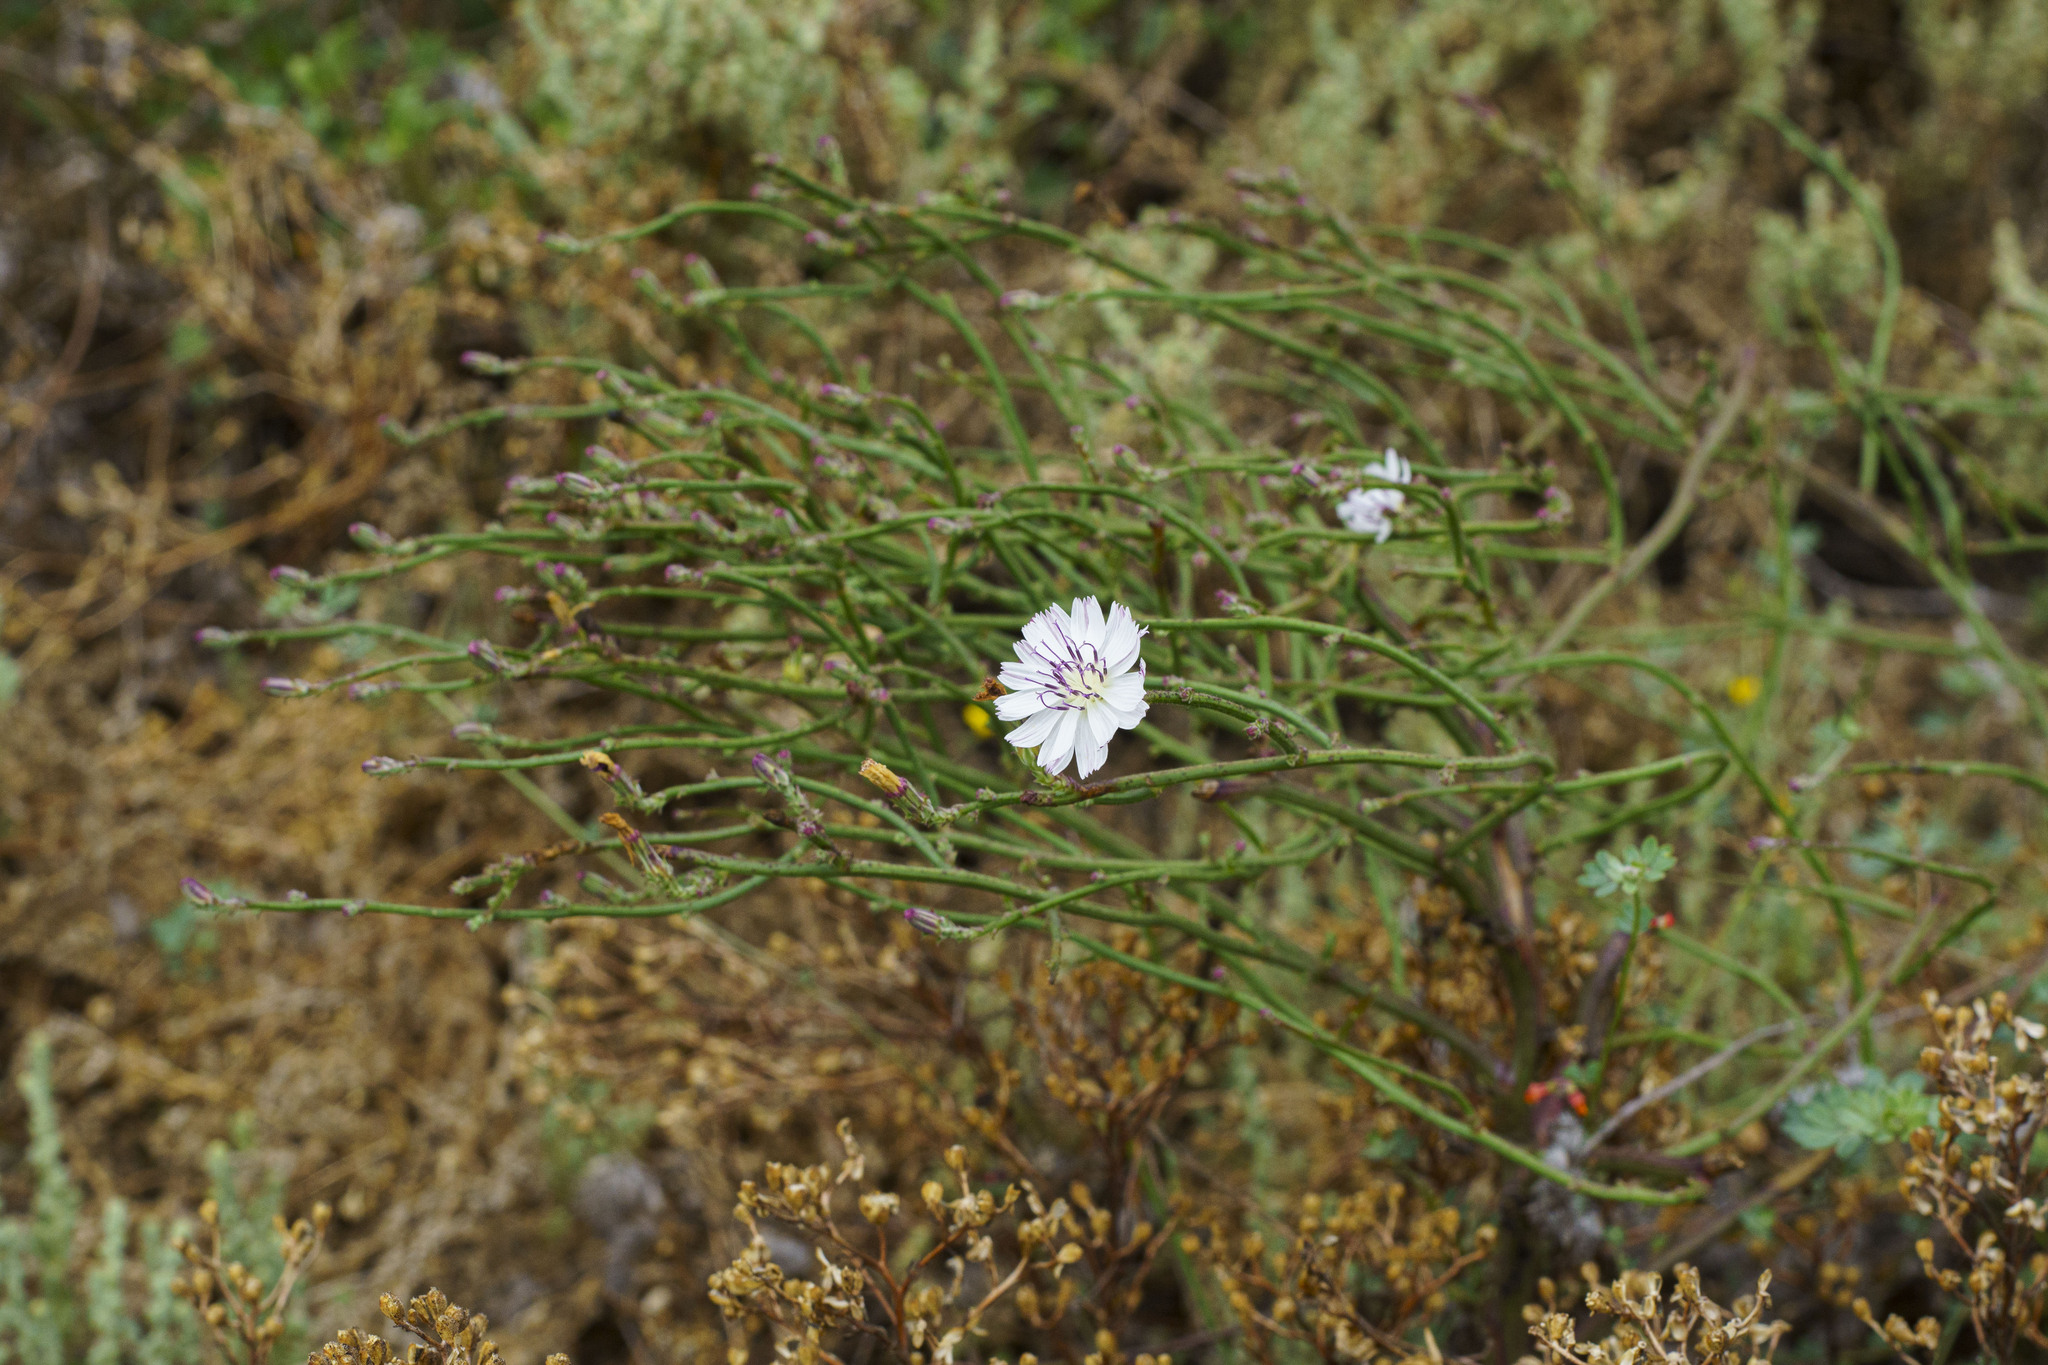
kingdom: Plantae
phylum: Tracheophyta
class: Magnoliopsida
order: Asterales
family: Asteraceae
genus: Stephanomeria
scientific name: Stephanomeria diegensis
